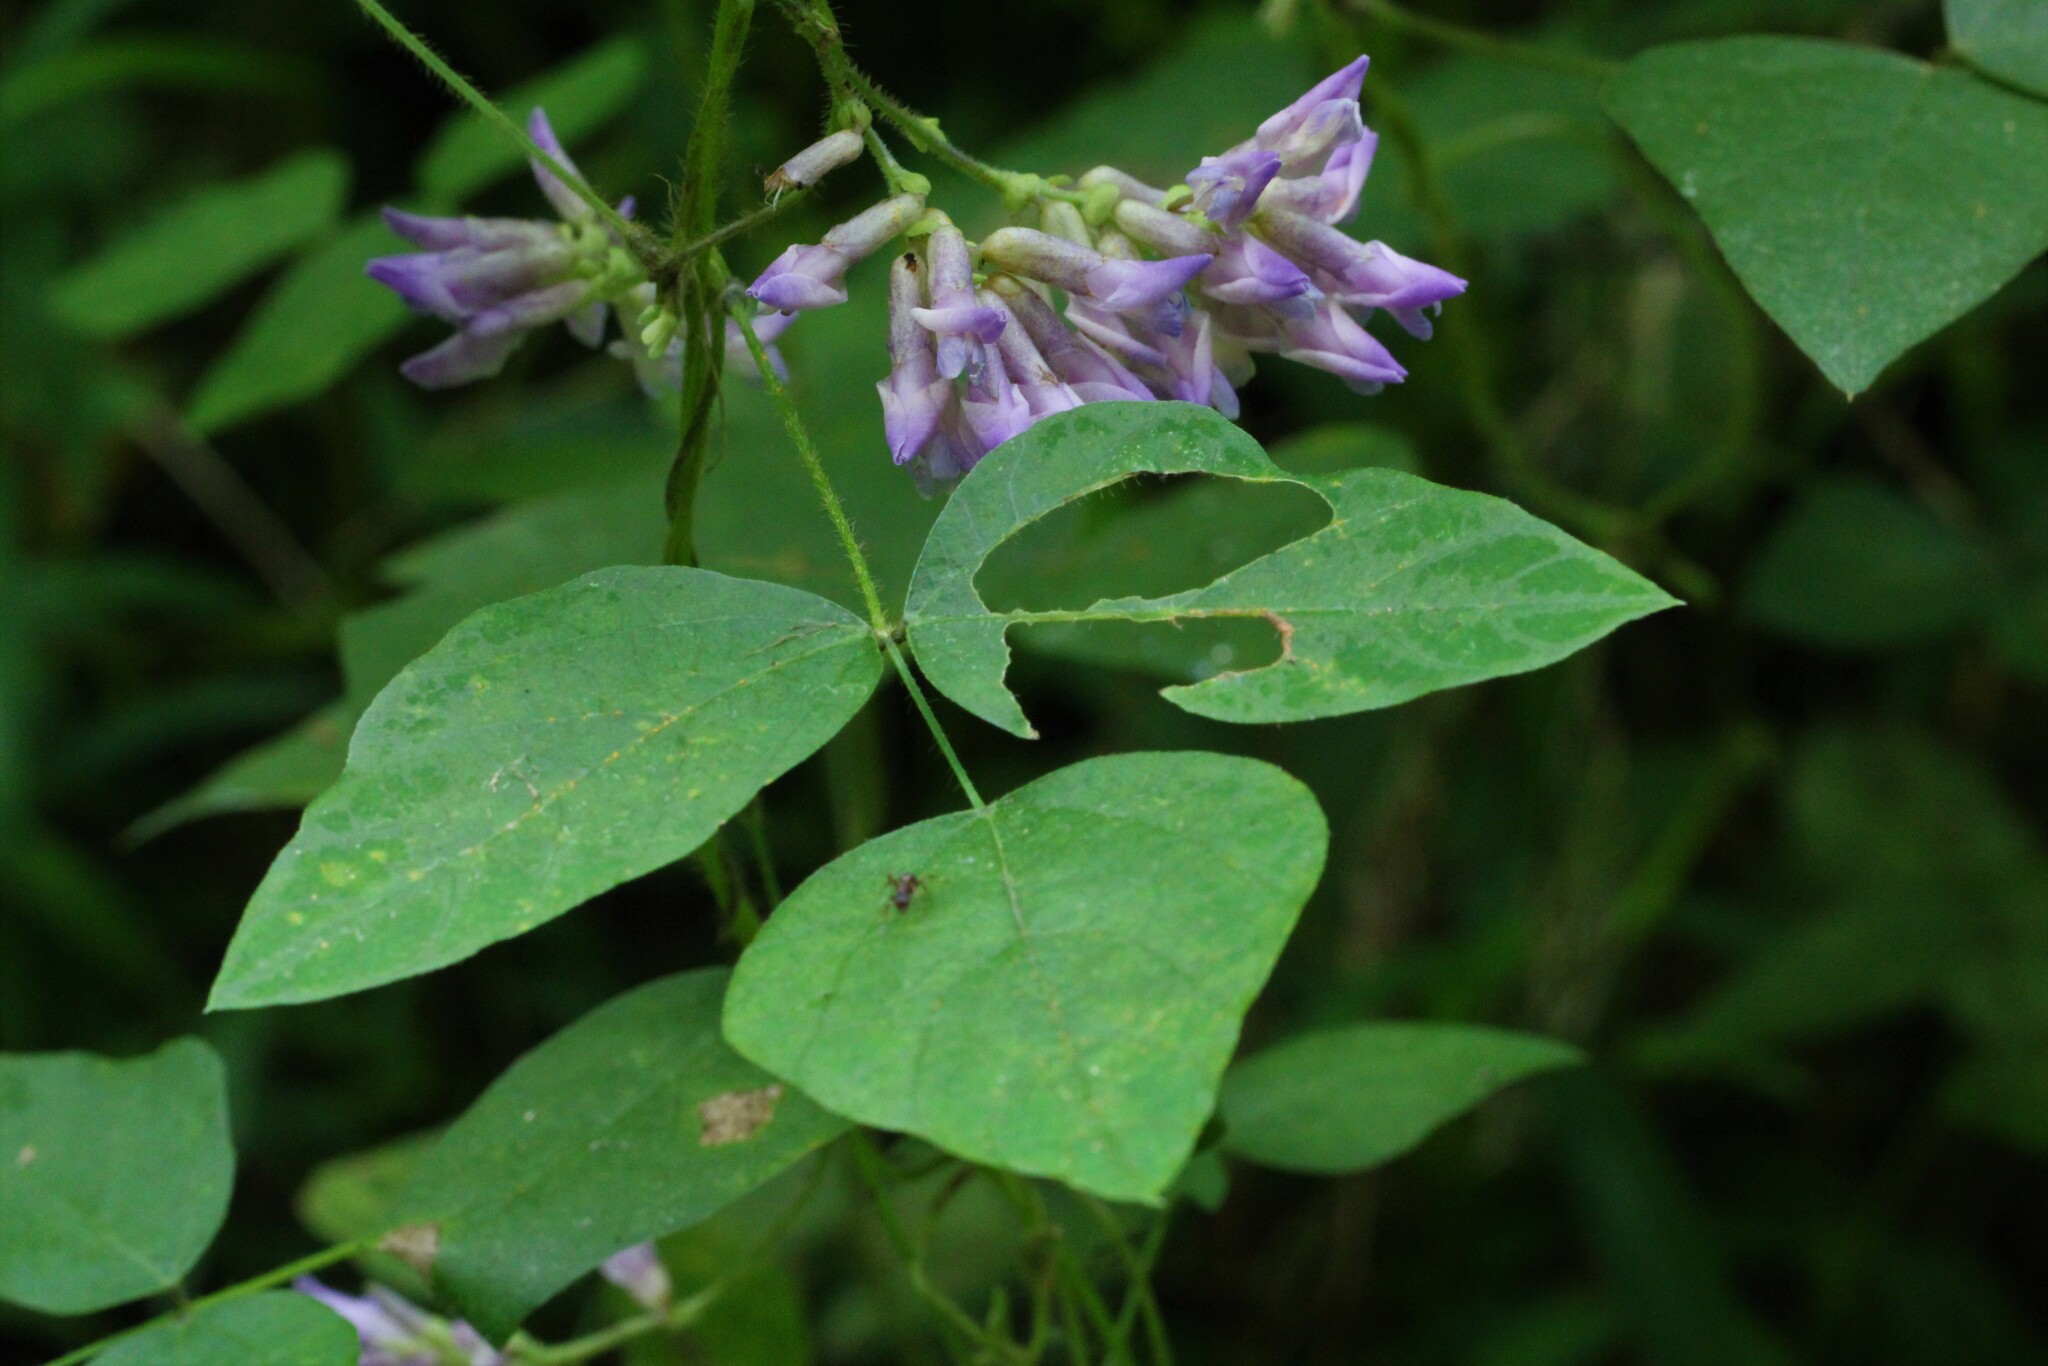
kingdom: Plantae
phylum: Tracheophyta
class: Magnoliopsida
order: Fabales
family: Fabaceae
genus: Amphicarpaea
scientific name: Amphicarpaea bracteata
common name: American hog peanut
